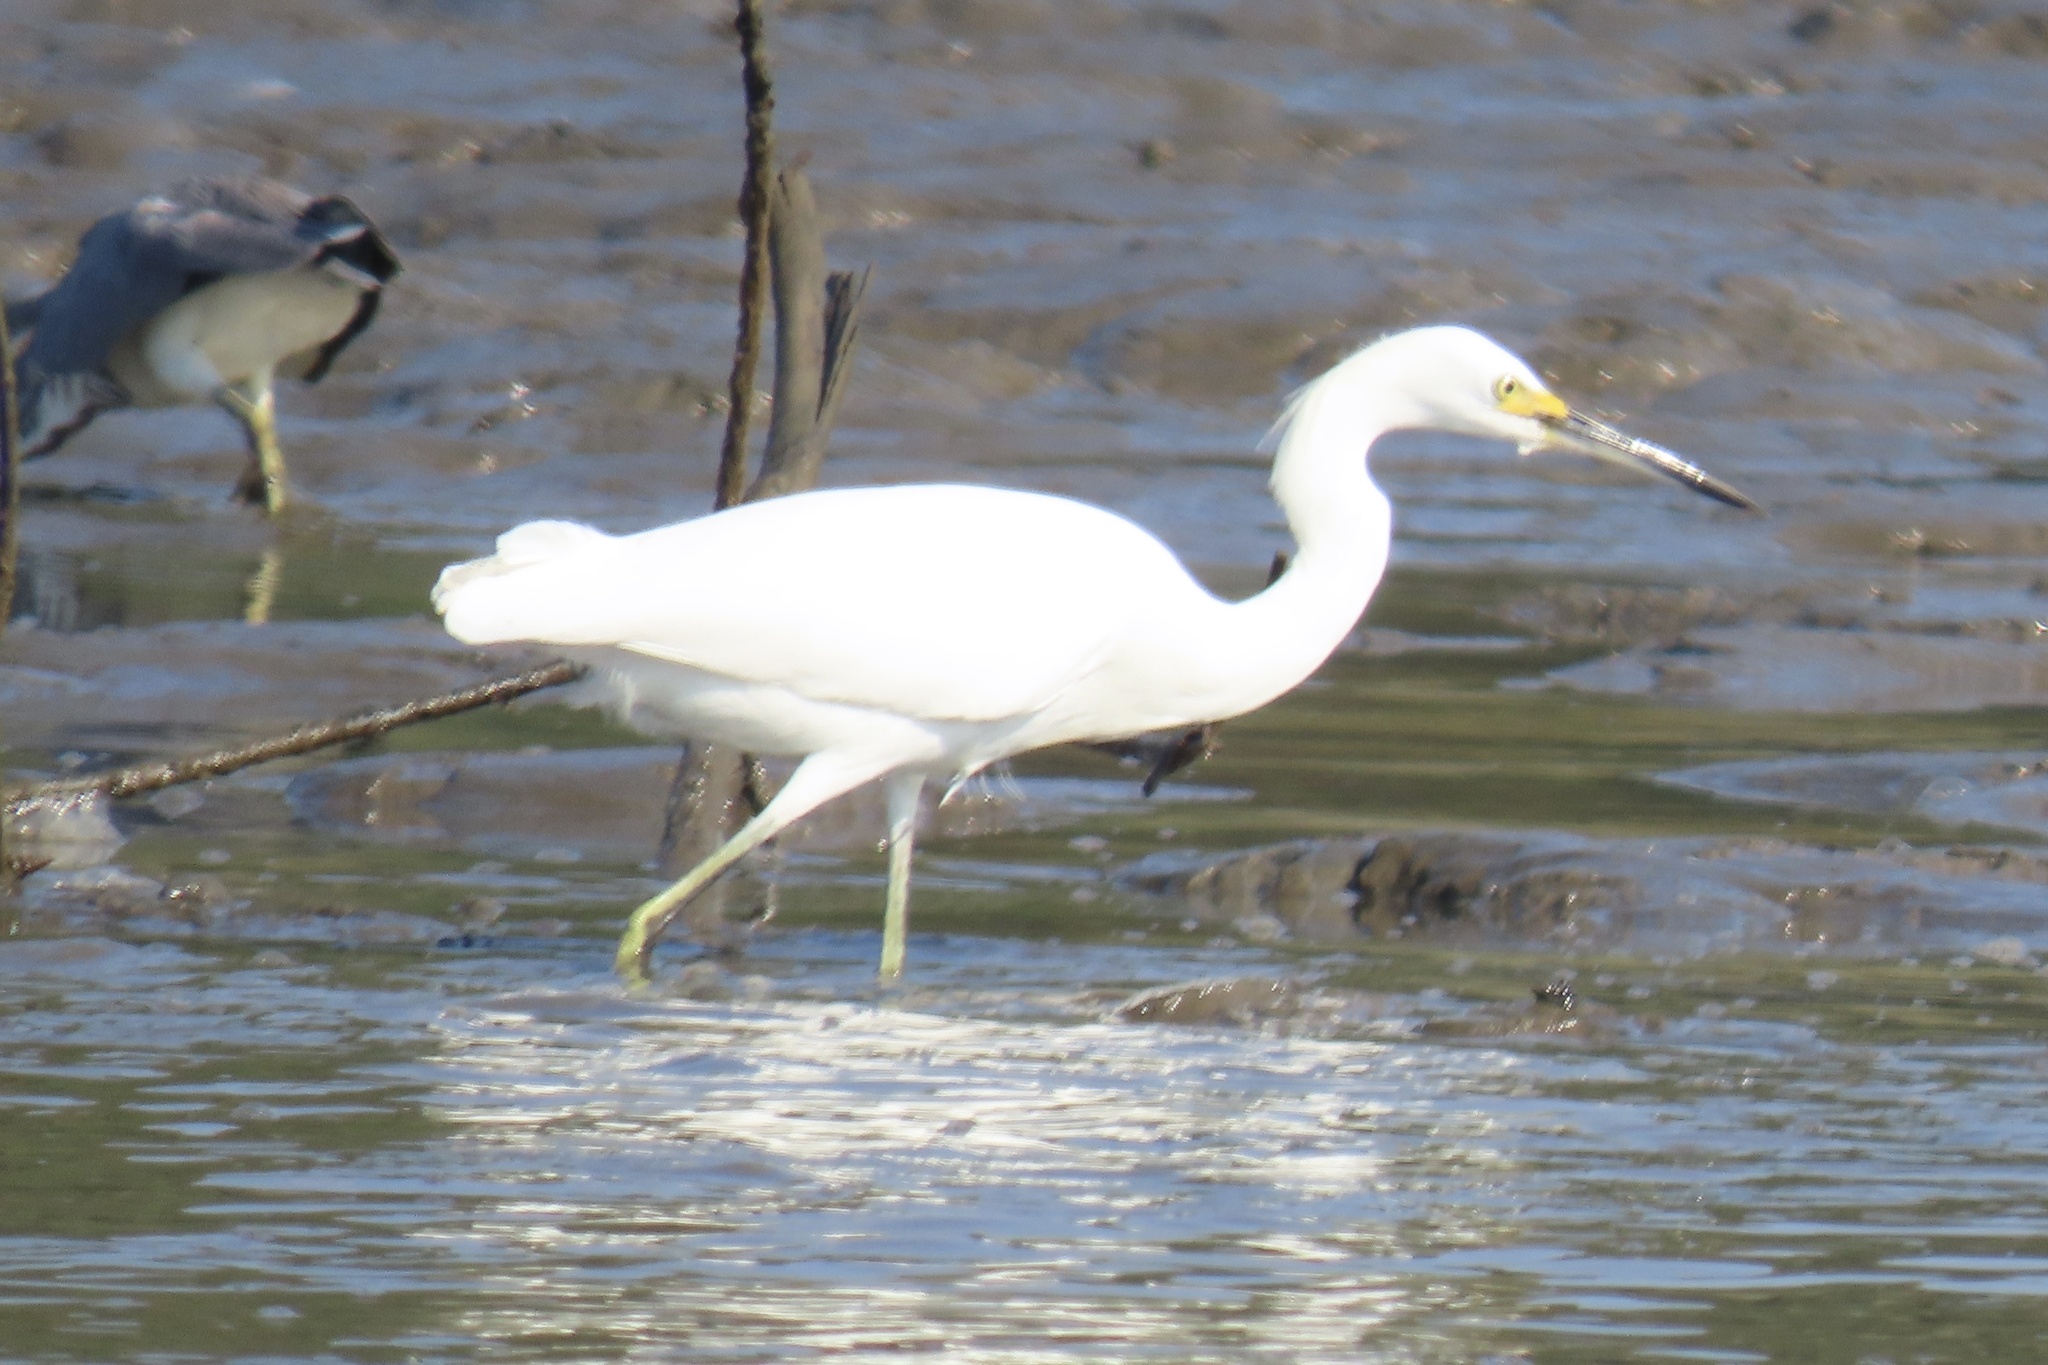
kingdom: Animalia
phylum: Chordata
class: Aves
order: Pelecaniformes
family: Ardeidae
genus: Egretta
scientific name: Egretta thula
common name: Snowy egret
